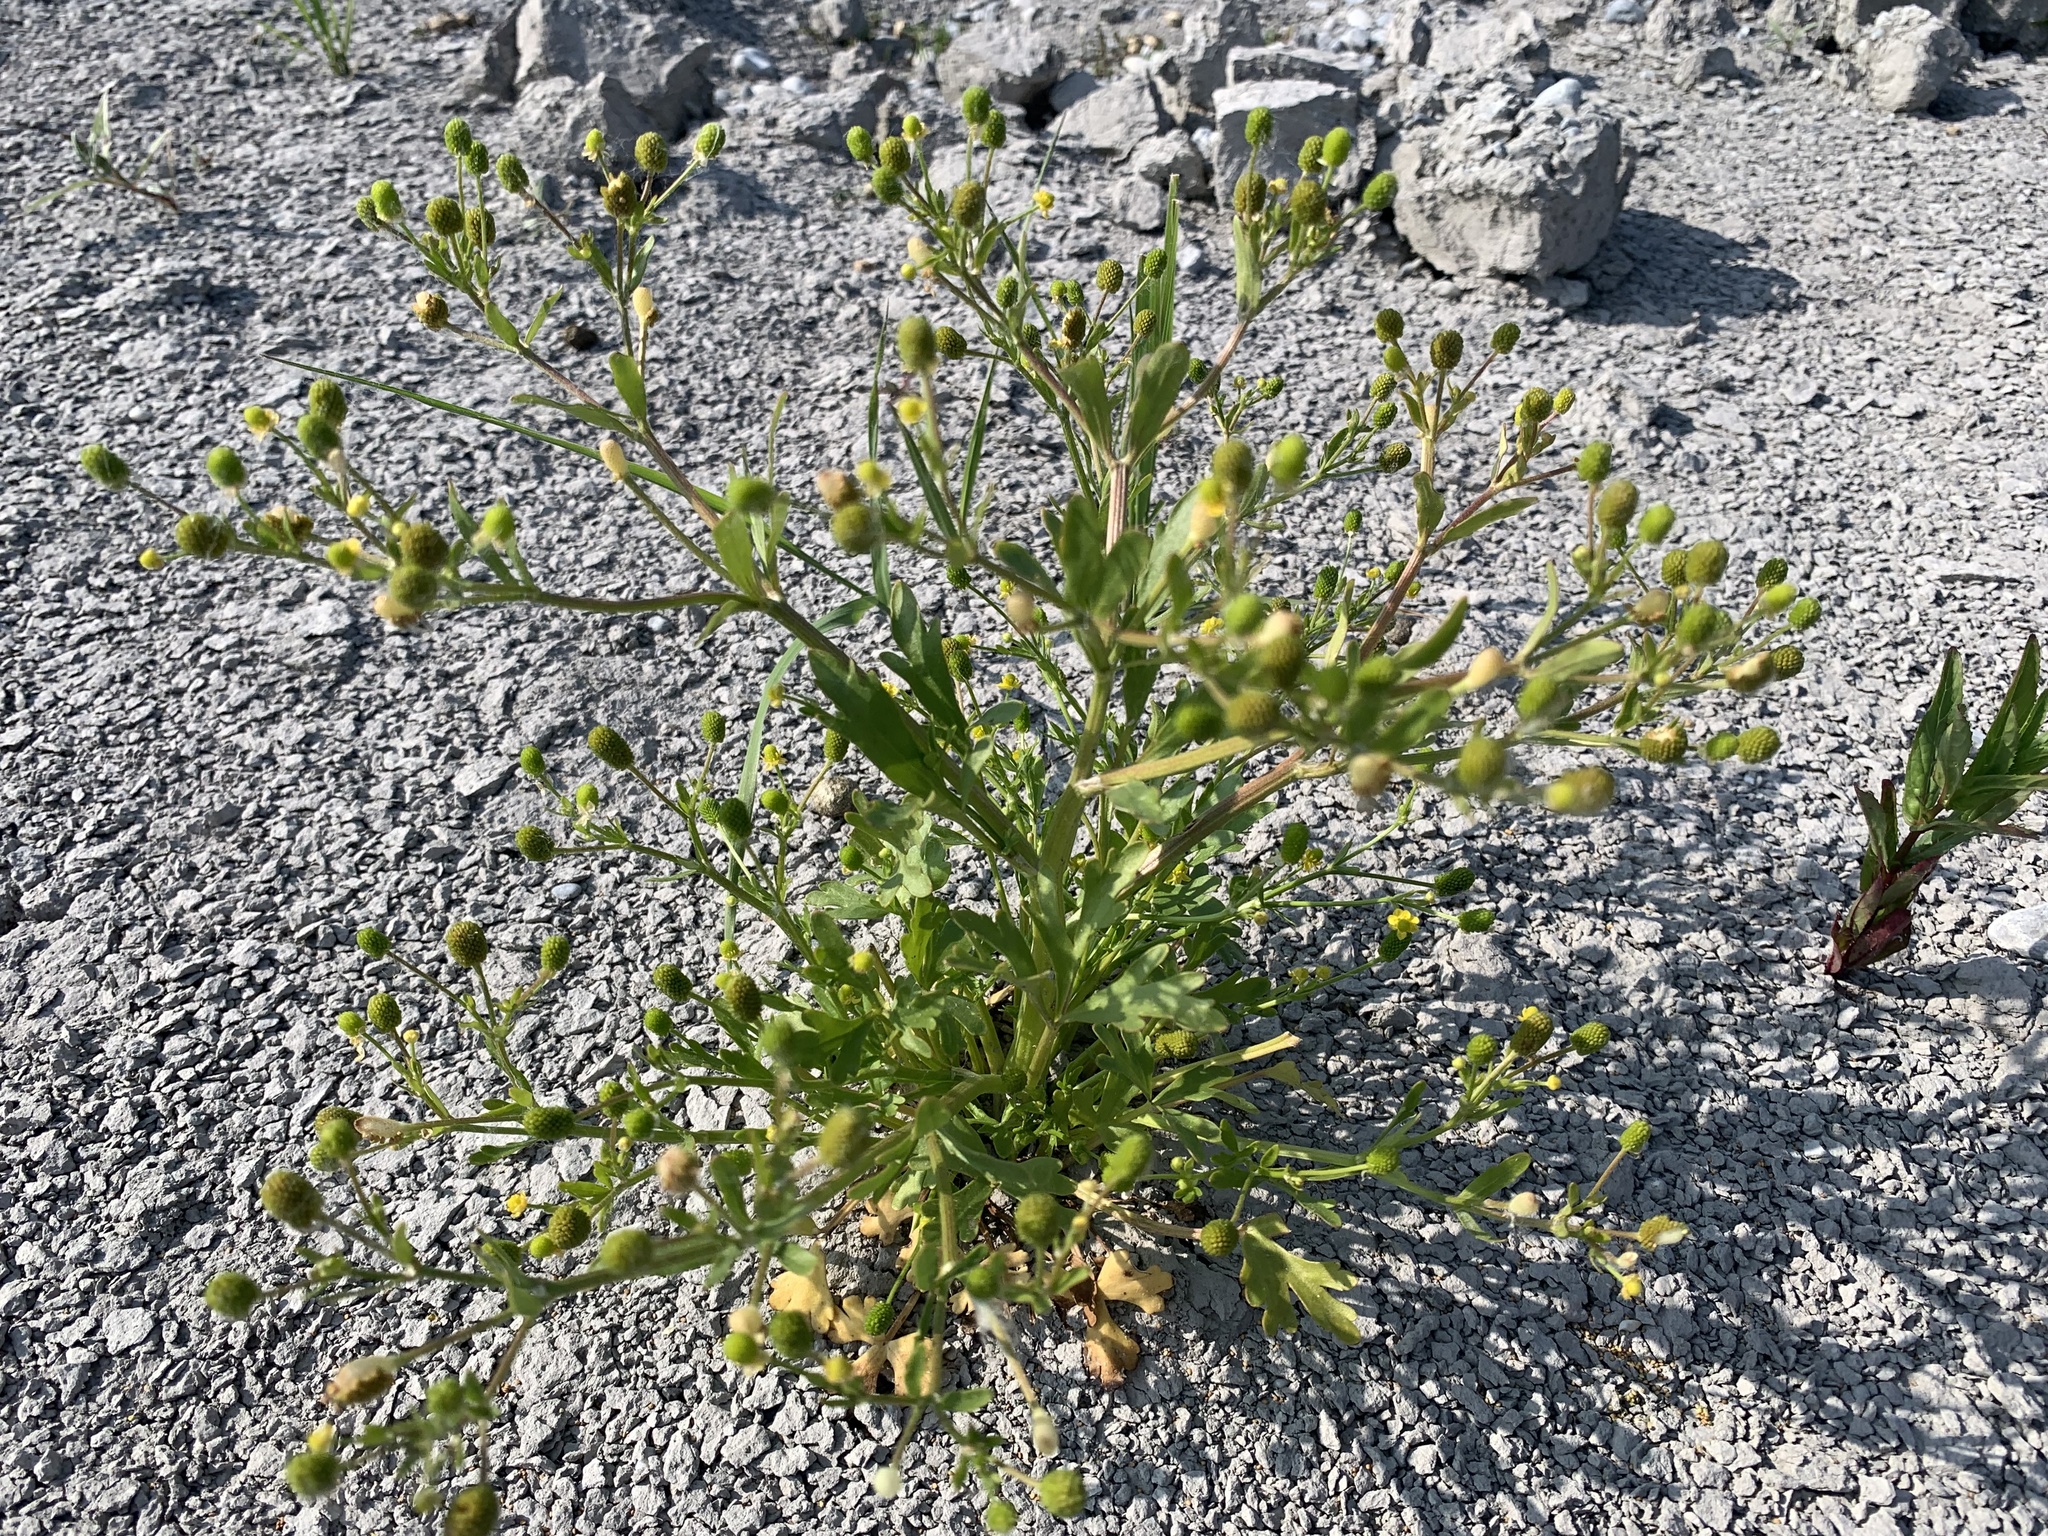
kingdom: Plantae
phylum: Tracheophyta
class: Magnoliopsida
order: Ranunculales
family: Ranunculaceae
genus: Ranunculus
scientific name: Ranunculus sceleratus
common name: Celery-leaved buttercup
